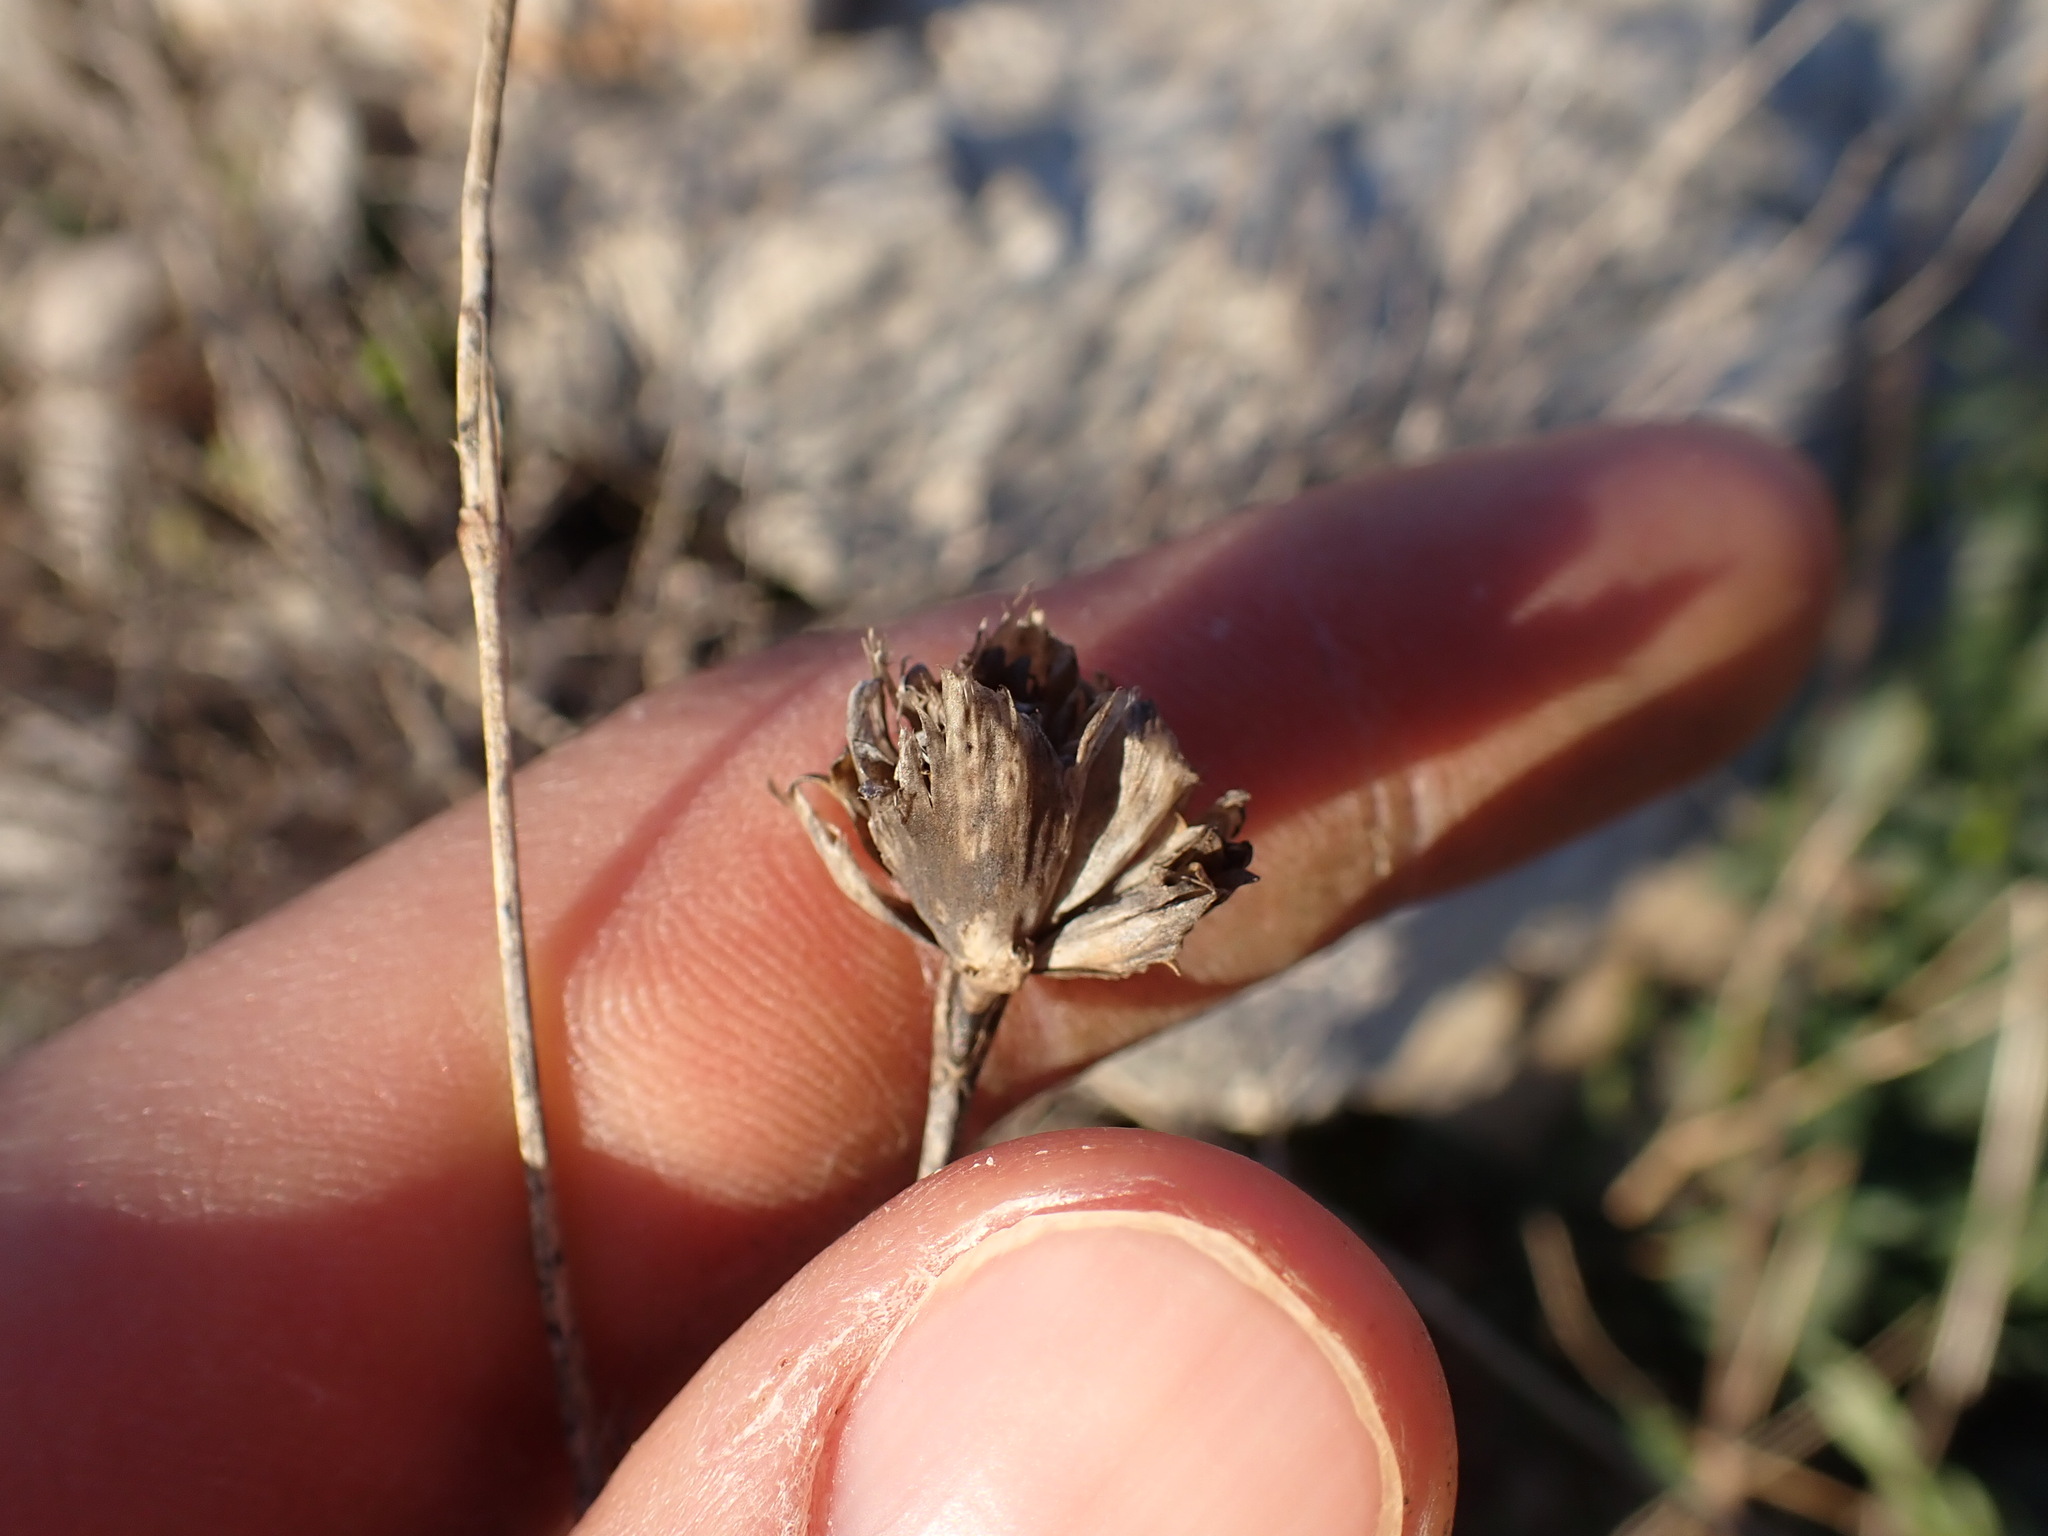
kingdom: Plantae
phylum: Tracheophyta
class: Magnoliopsida
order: Caryophyllales
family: Caryophyllaceae
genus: Petrorhagia
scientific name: Petrorhagia prolifera
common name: Proliferous pink
